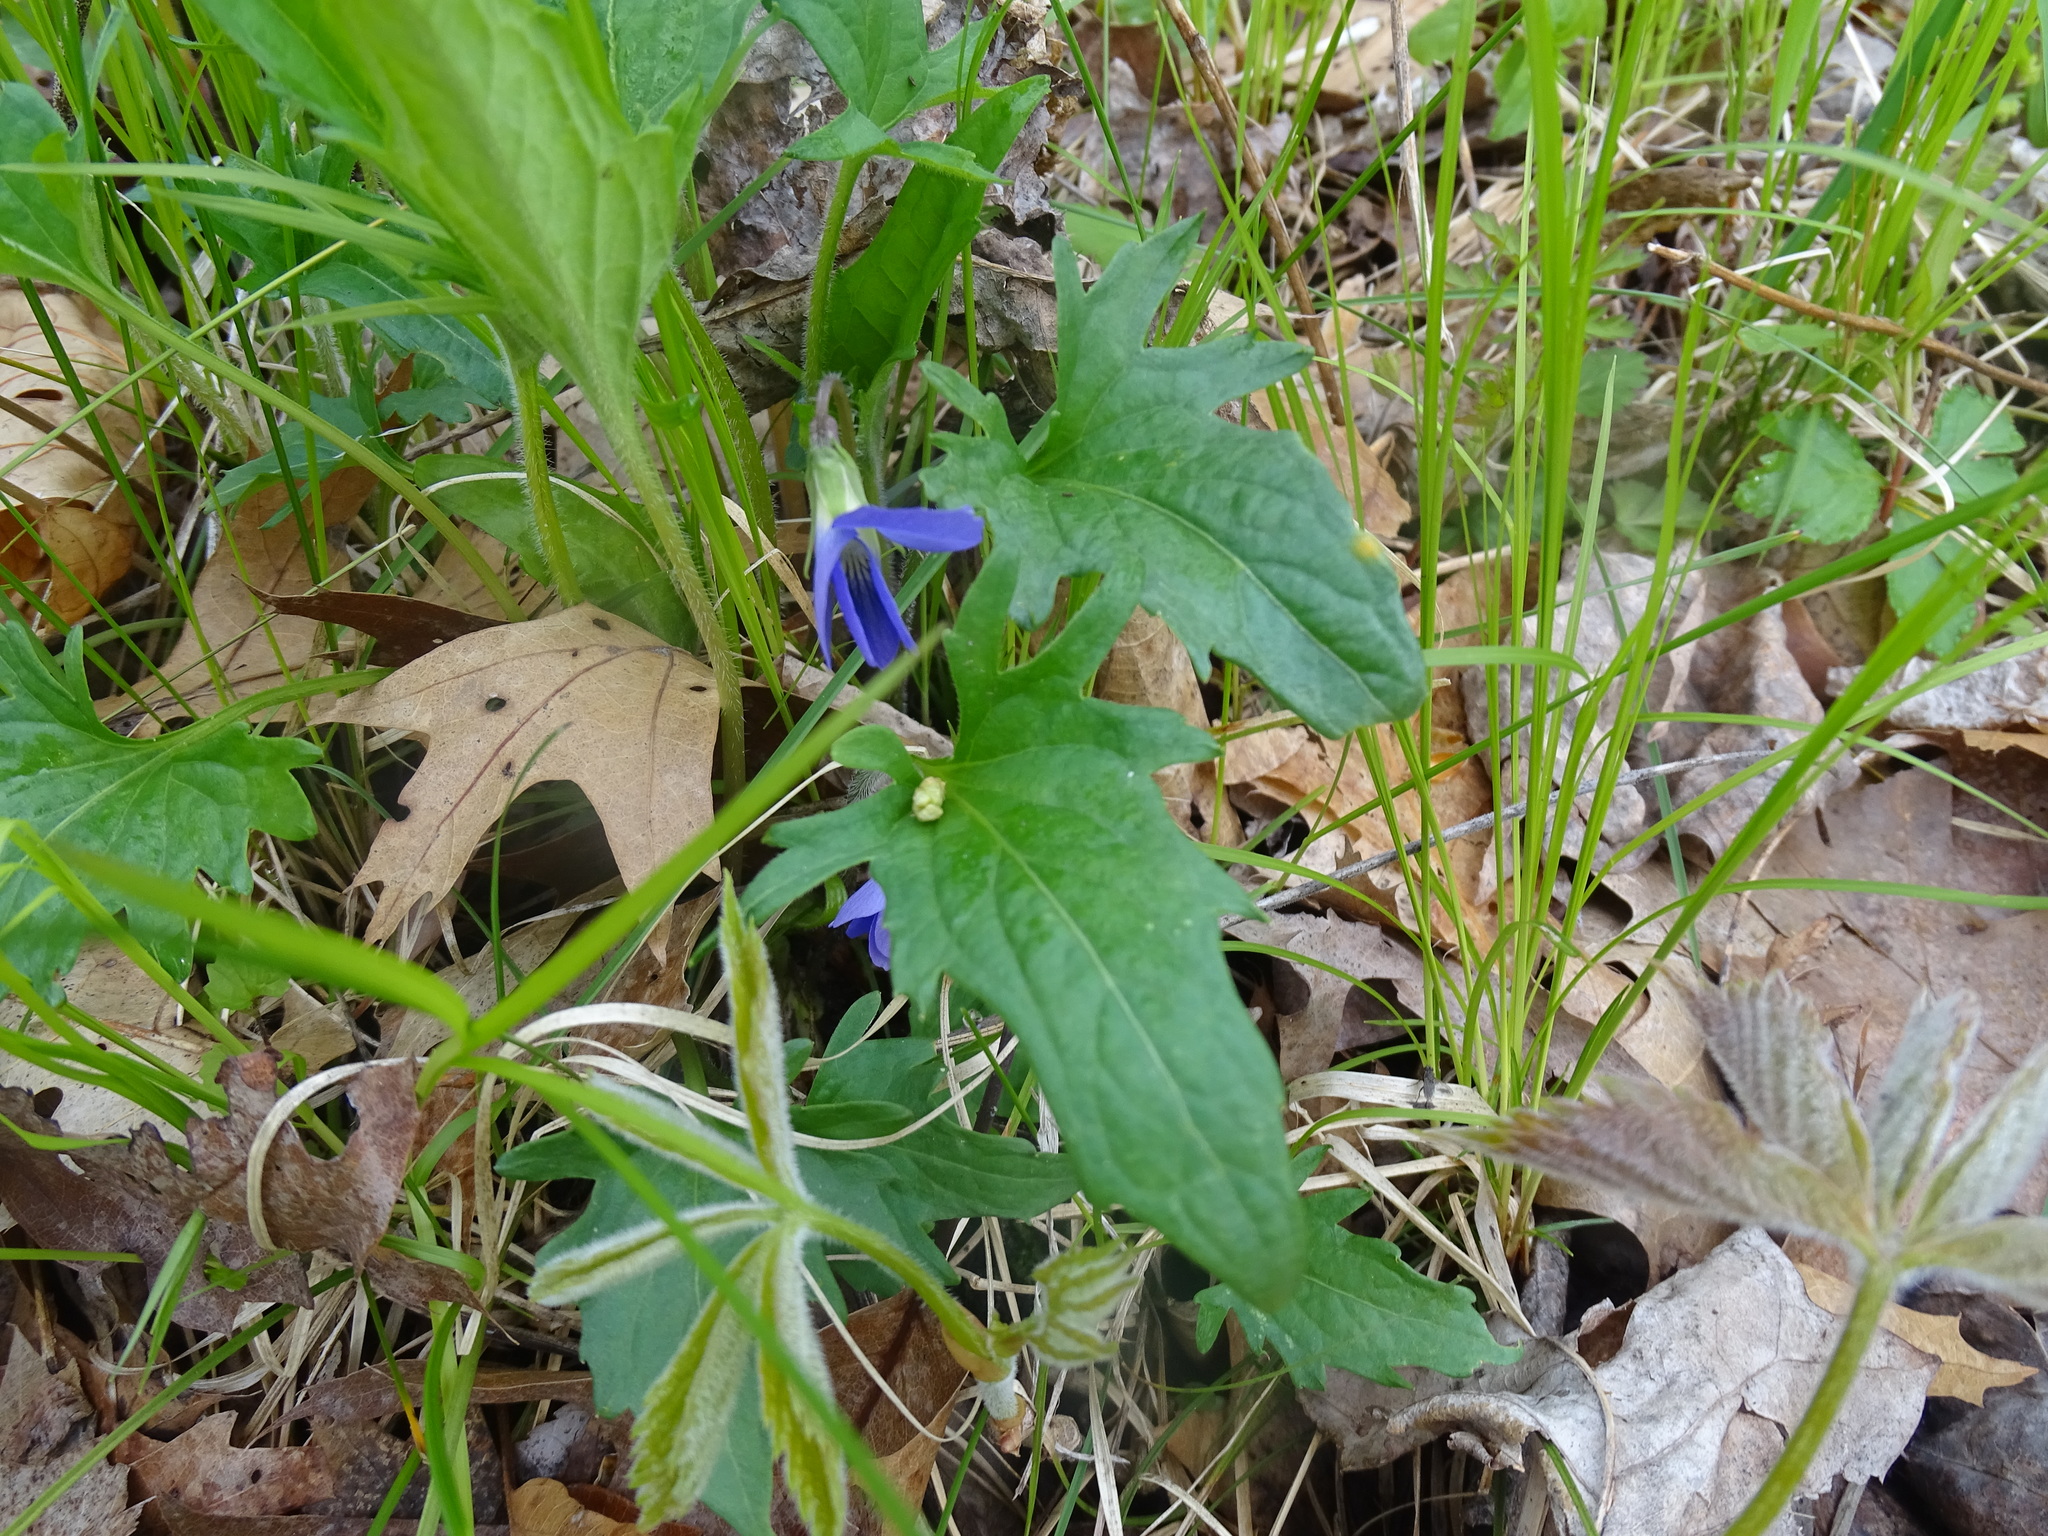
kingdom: Plantae
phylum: Tracheophyta
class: Magnoliopsida
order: Malpighiales
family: Violaceae
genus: Viola
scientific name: Viola palmata
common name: Early blue violet
